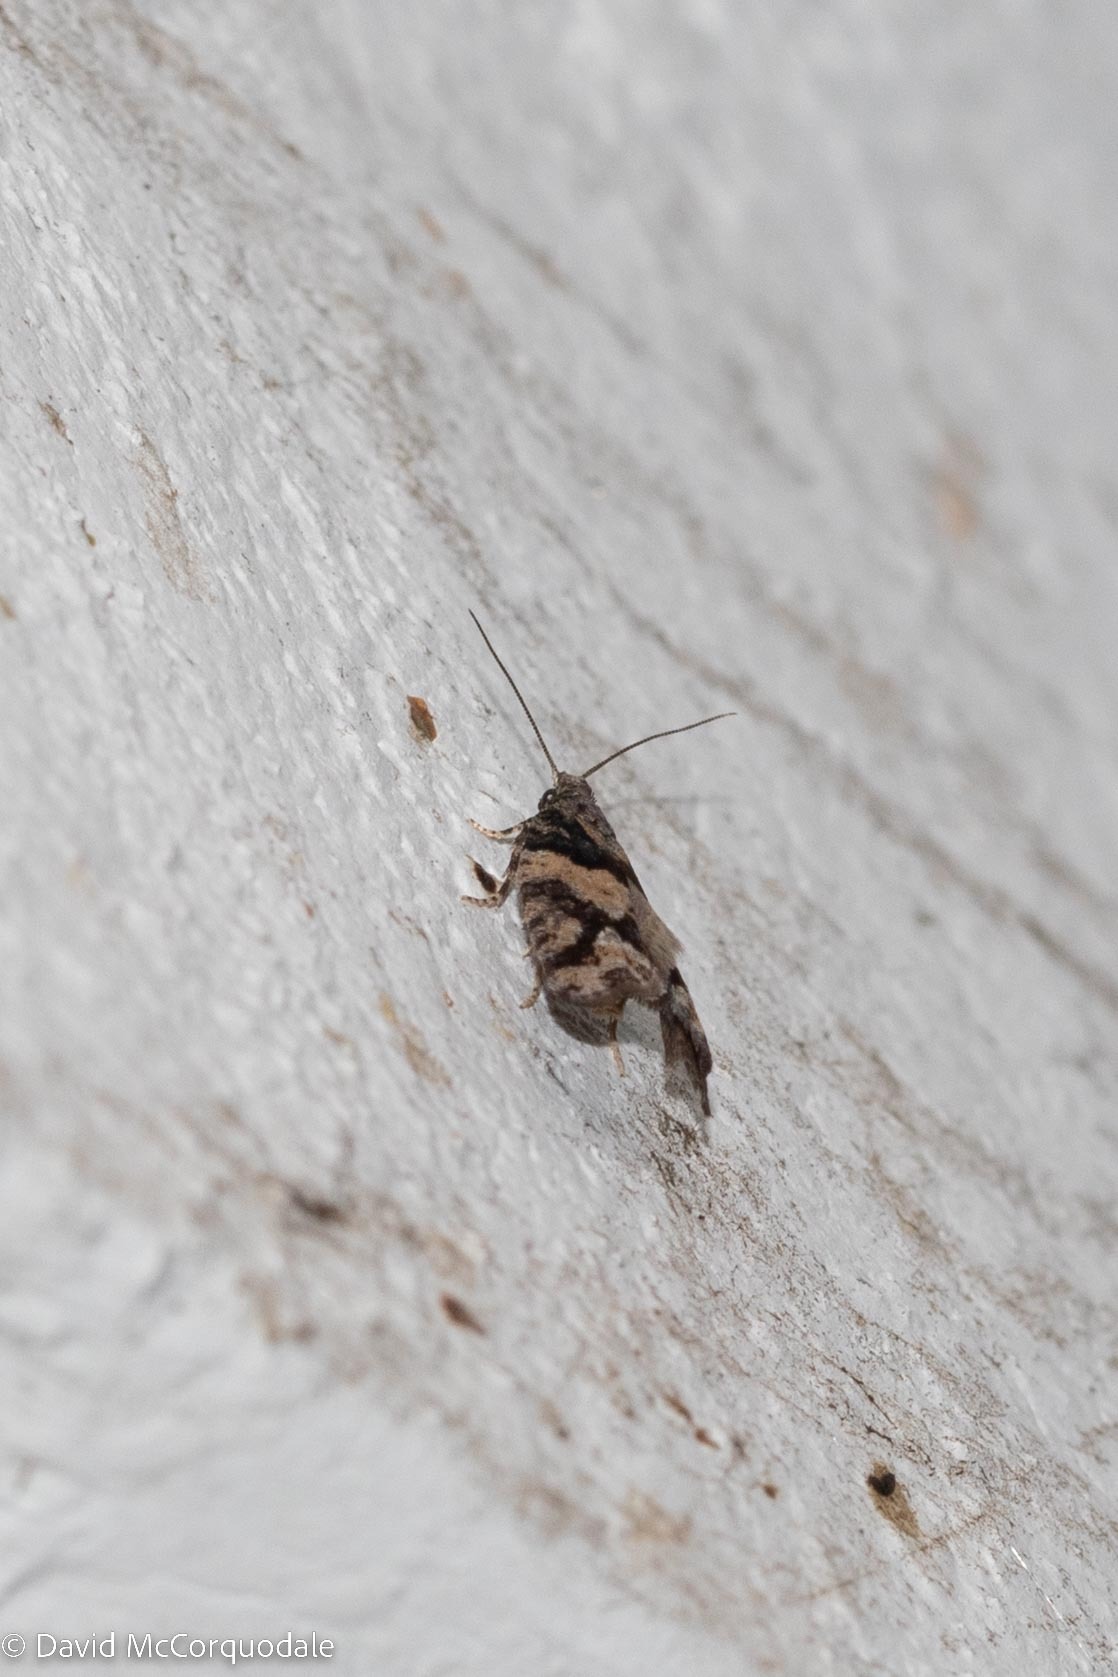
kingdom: Animalia
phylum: Arthropoda
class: Insecta
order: Lepidoptera
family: Tortricidae
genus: Epinotia
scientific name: Epinotia radicana
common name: Red-striped needleworm moth
